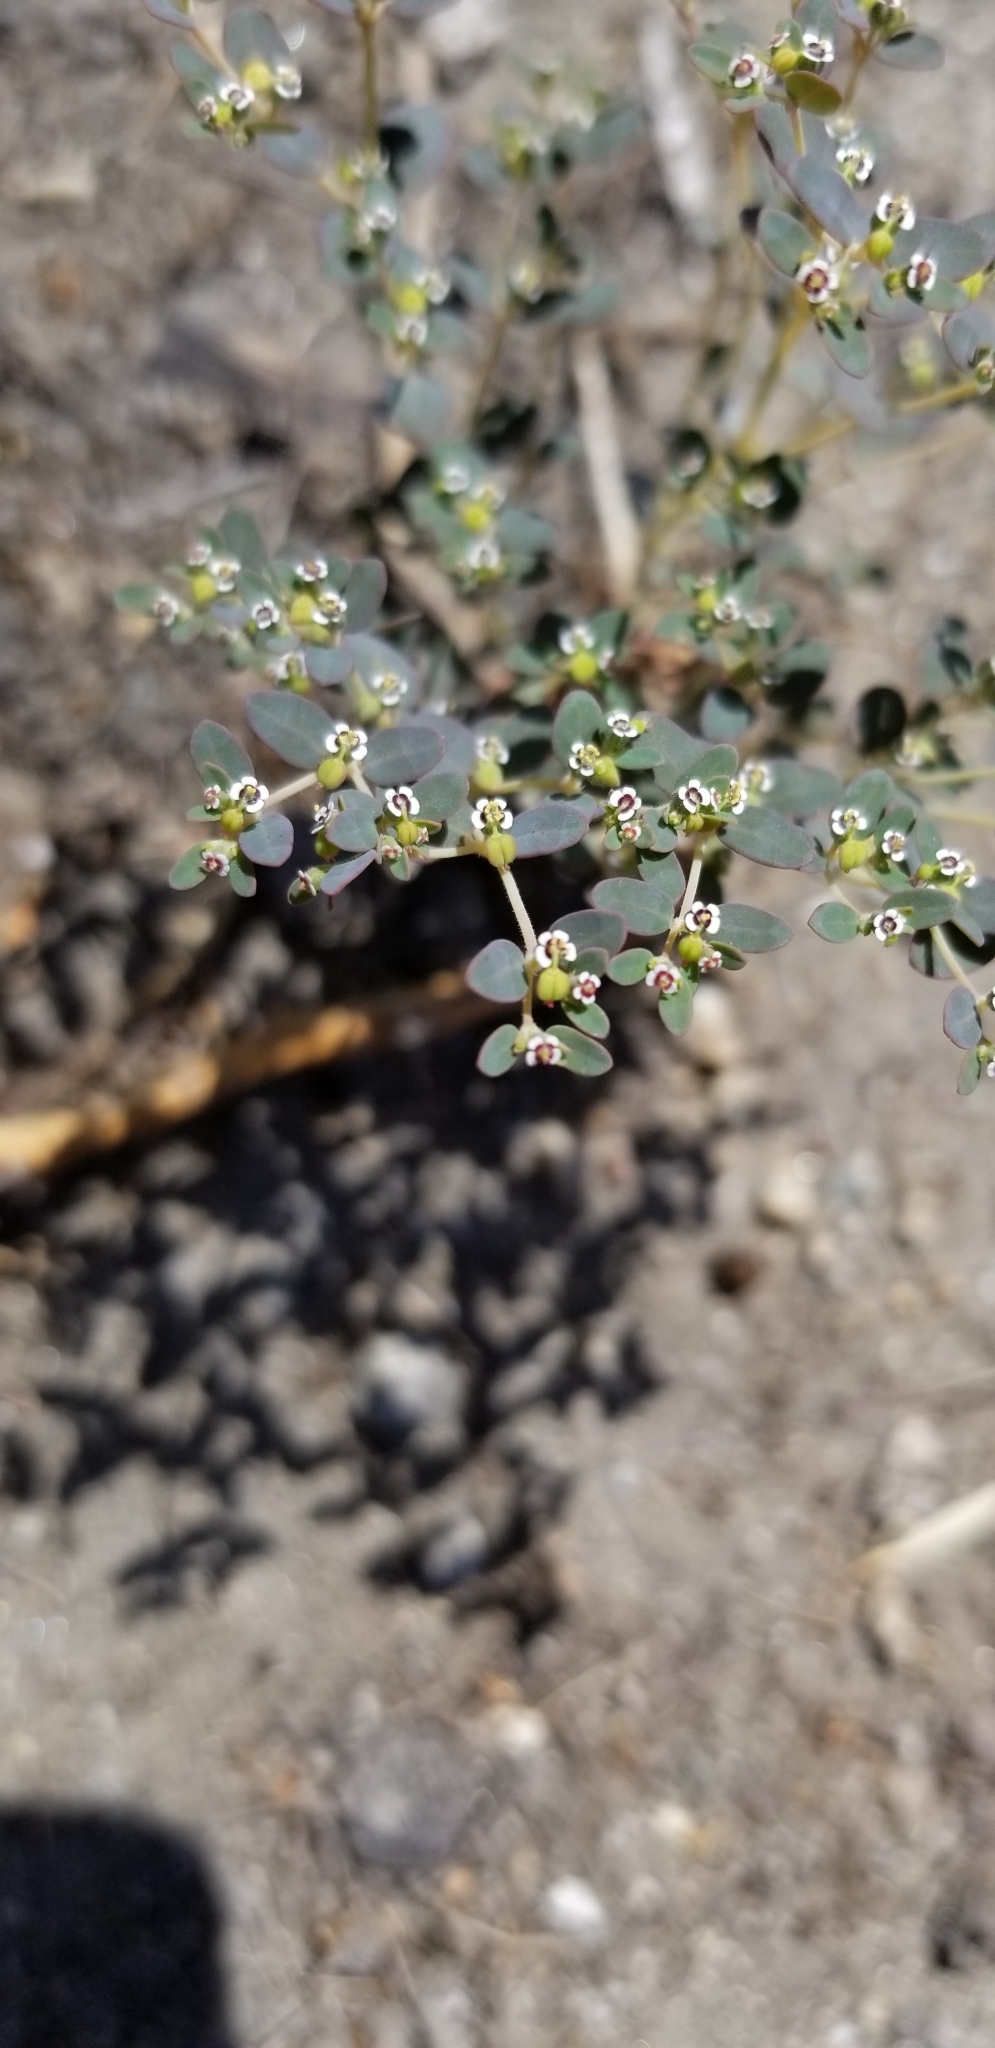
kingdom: Plantae
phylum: Tracheophyta
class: Magnoliopsida
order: Malpighiales
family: Euphorbiaceae
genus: Euphorbia
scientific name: Euphorbia polycarpa
